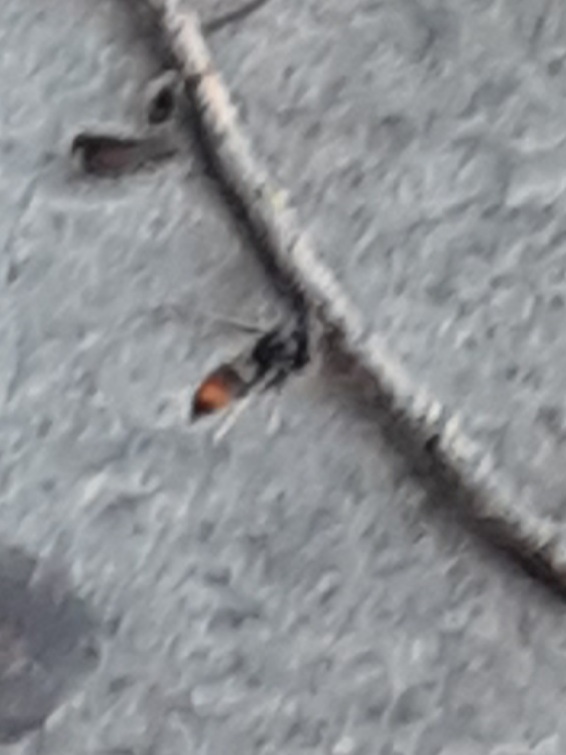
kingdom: Animalia
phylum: Arthropoda
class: Insecta
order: Hymenoptera
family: Vespidae
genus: Vespa
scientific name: Vespa velutina
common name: Asian hornet
